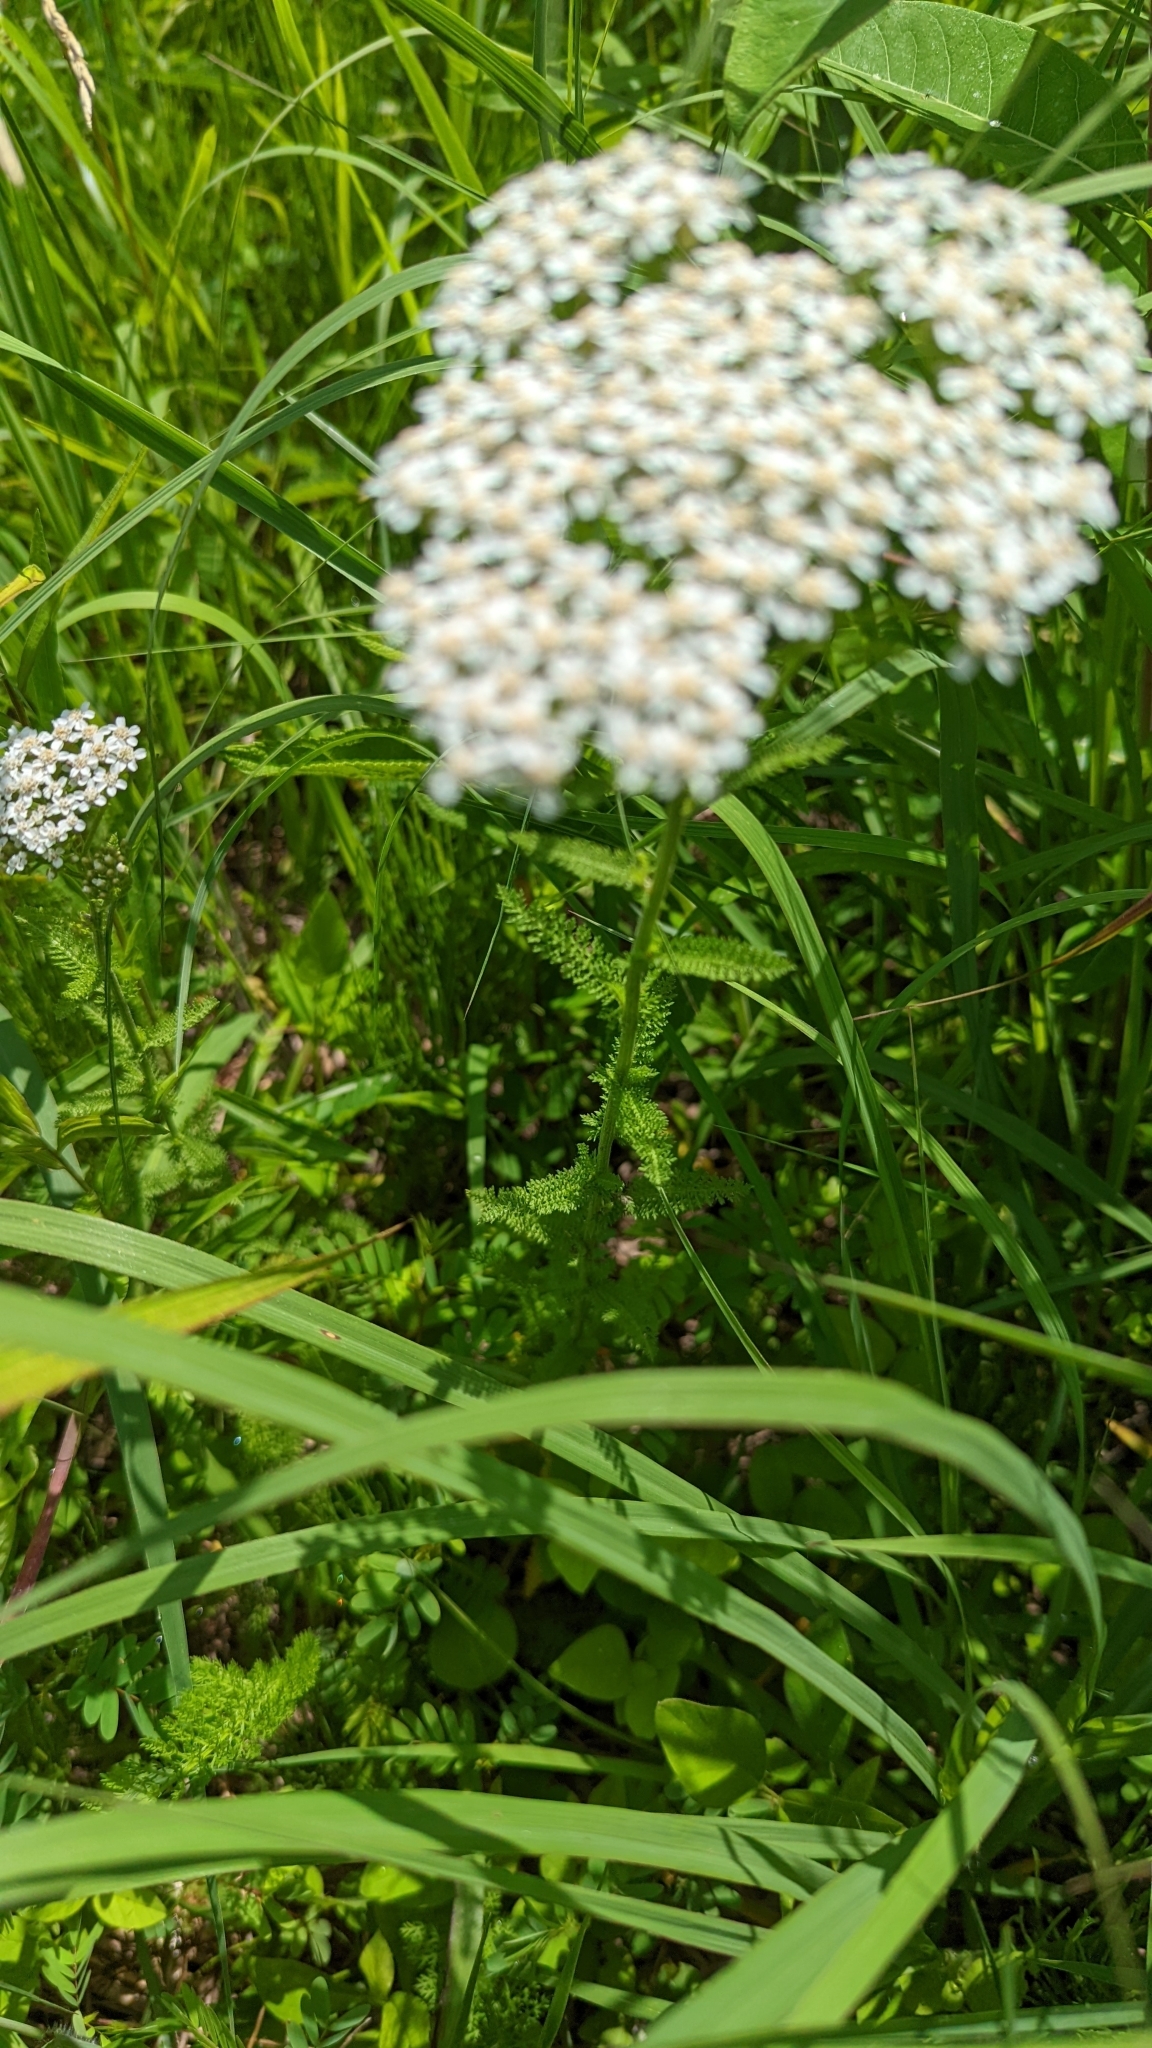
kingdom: Plantae
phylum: Tracheophyta
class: Magnoliopsida
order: Asterales
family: Asteraceae
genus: Achillea
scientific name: Achillea millefolium
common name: Yarrow
